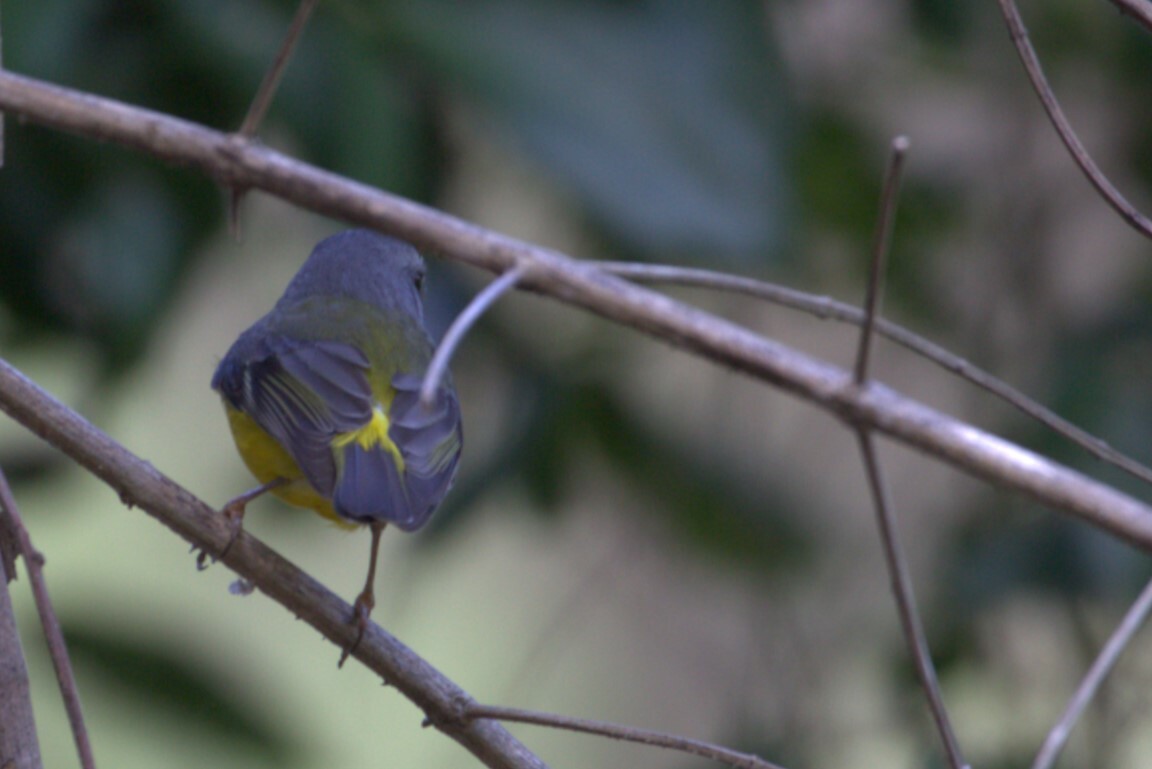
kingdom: Animalia
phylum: Chordata
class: Aves
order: Passeriformes
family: Petroicidae
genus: Eopsaltria
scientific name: Eopsaltria australis
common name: Eastern yellow robin
